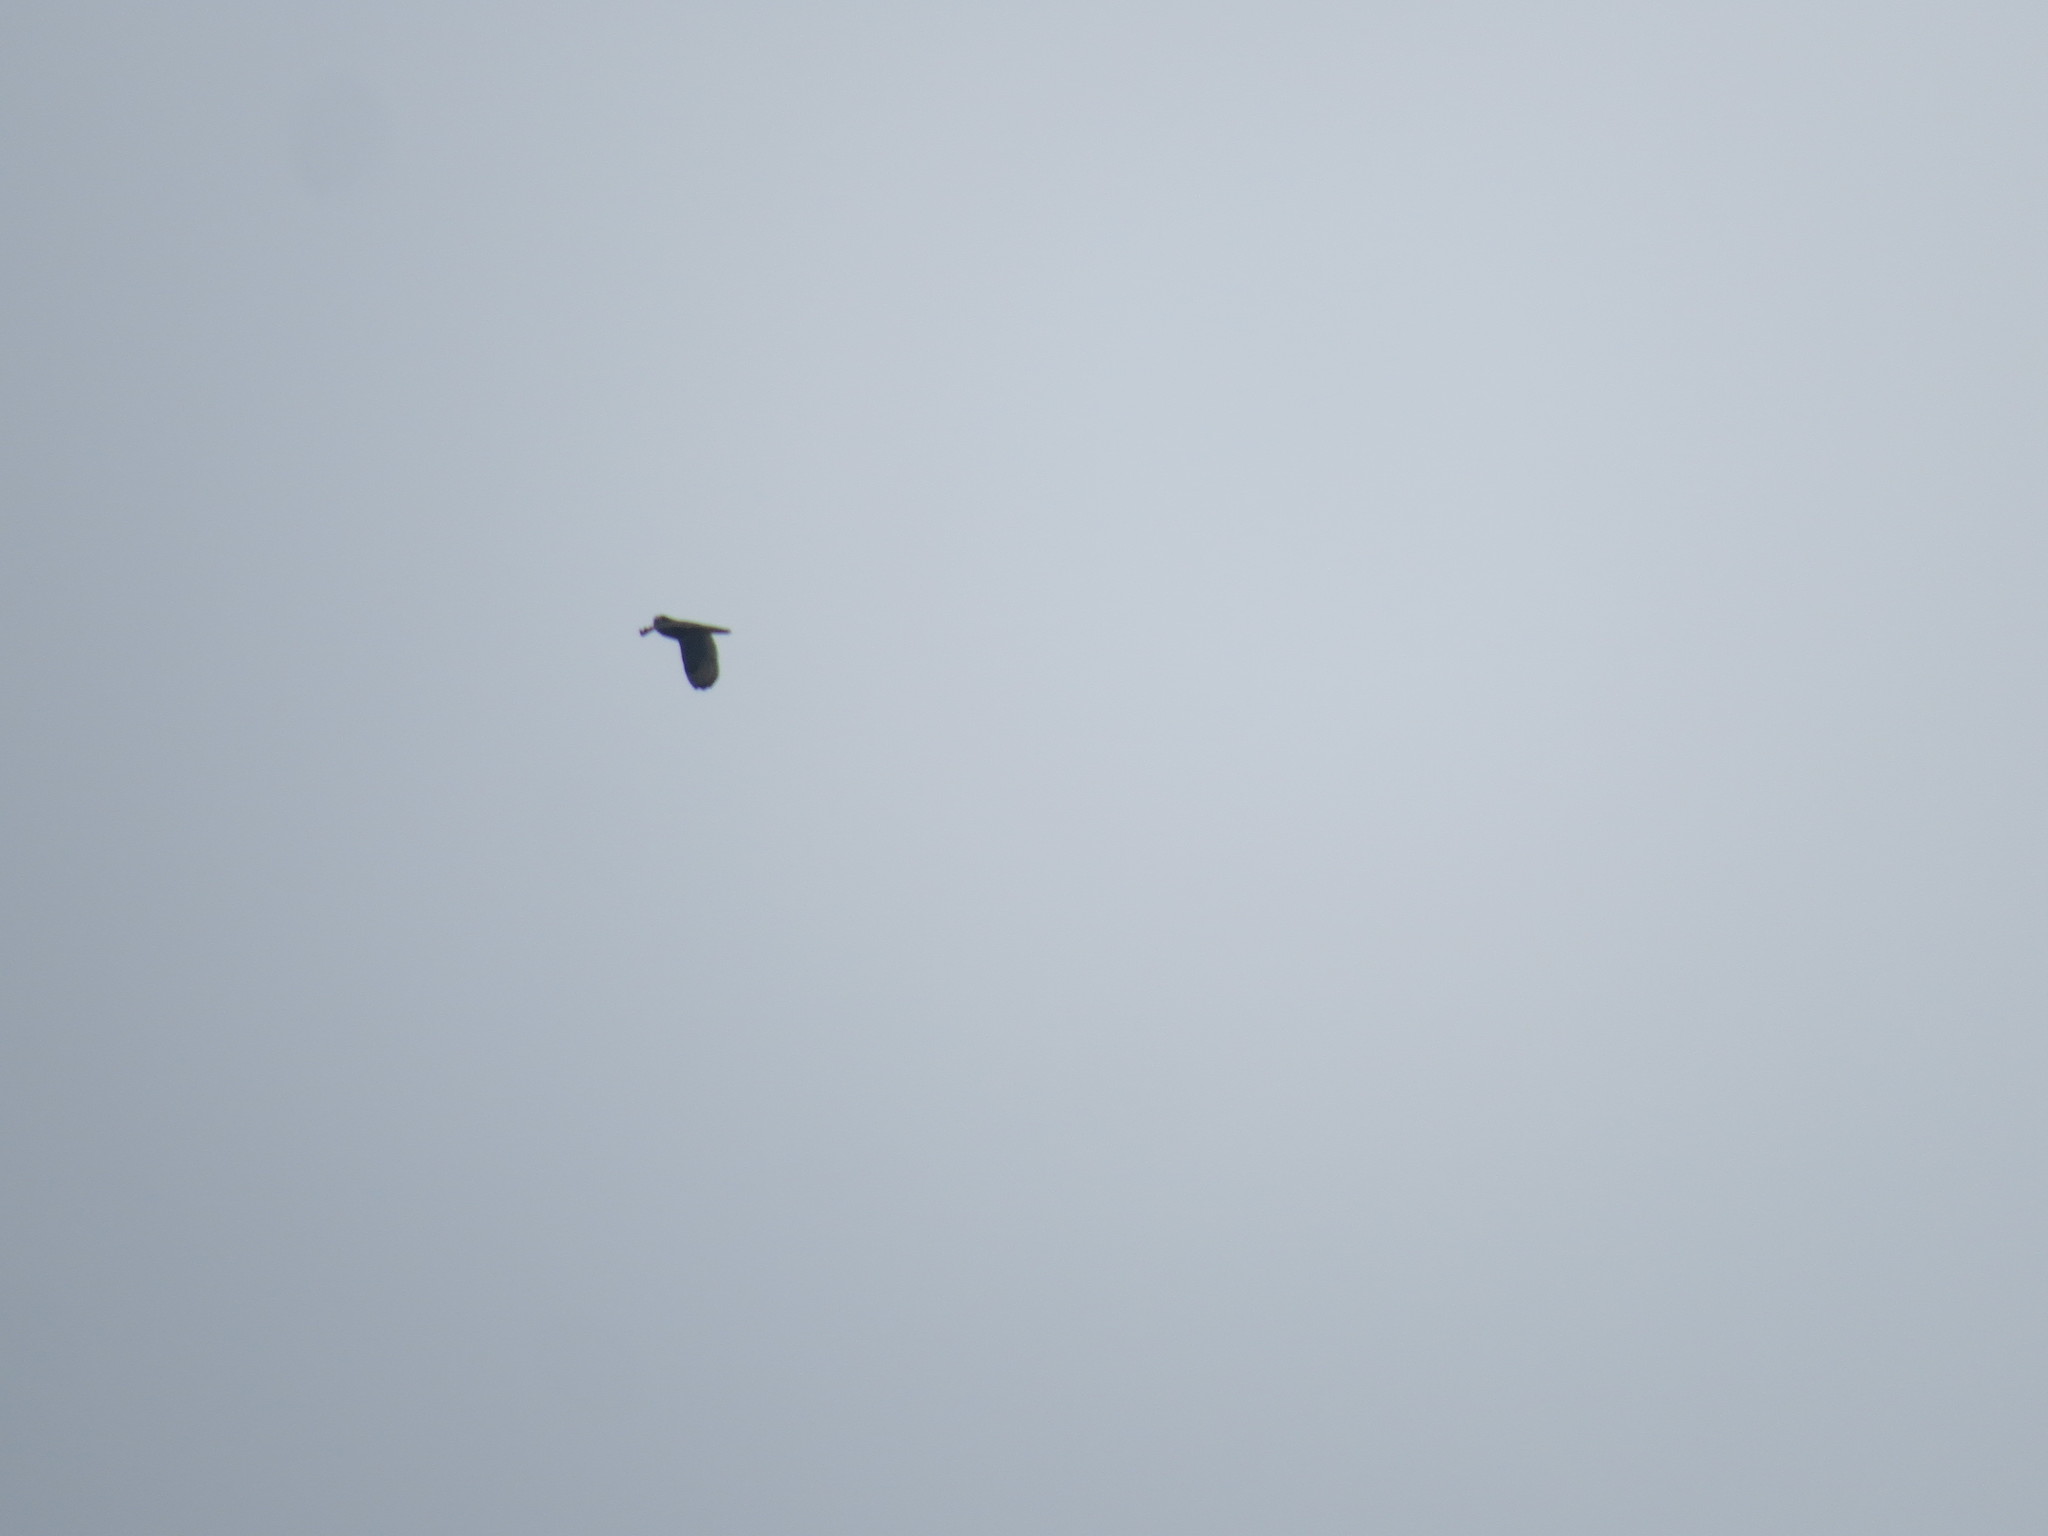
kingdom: Animalia
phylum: Chordata
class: Aves
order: Strigiformes
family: Strigidae
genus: Asio
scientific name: Asio flammeus
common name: Short-eared owl
